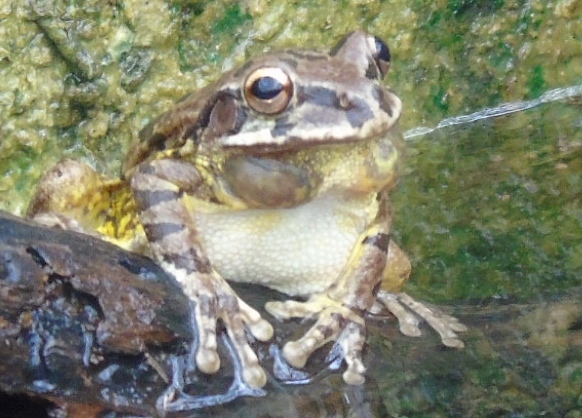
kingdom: Animalia
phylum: Chordata
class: Amphibia
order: Anura
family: Hylidae
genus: Smilisca
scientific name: Smilisca baudinii
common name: Mexican smilisca
